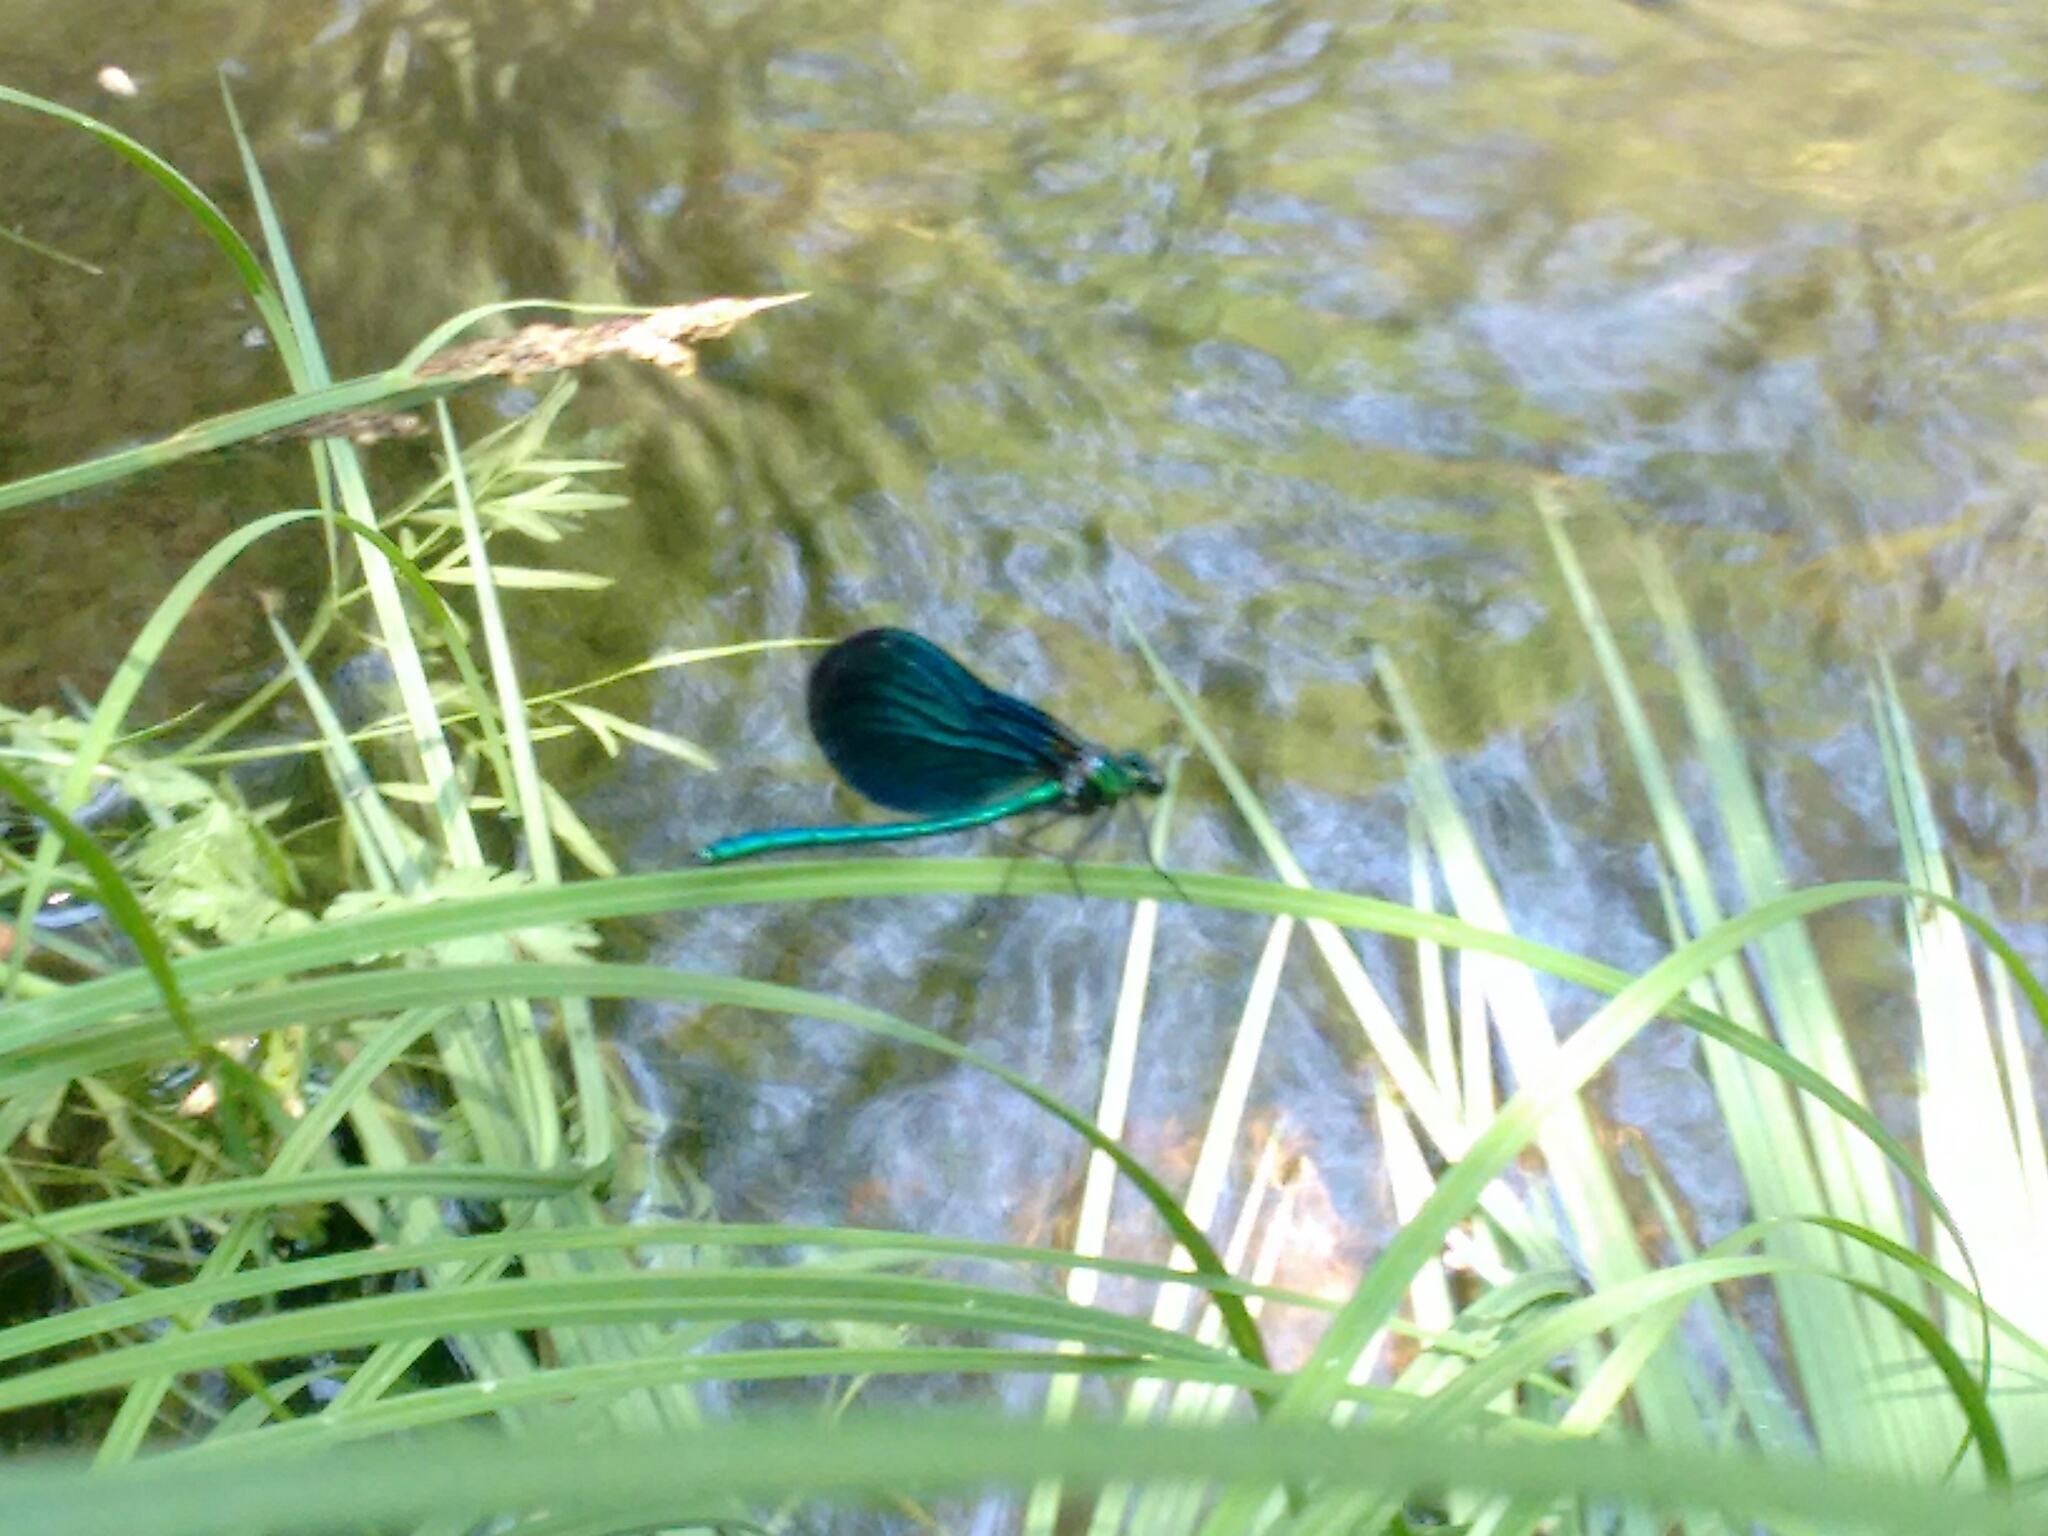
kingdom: Animalia
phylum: Arthropoda
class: Insecta
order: Odonata
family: Calopterygidae
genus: Calopteryx
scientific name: Calopteryx virgo
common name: Beautiful demoiselle
